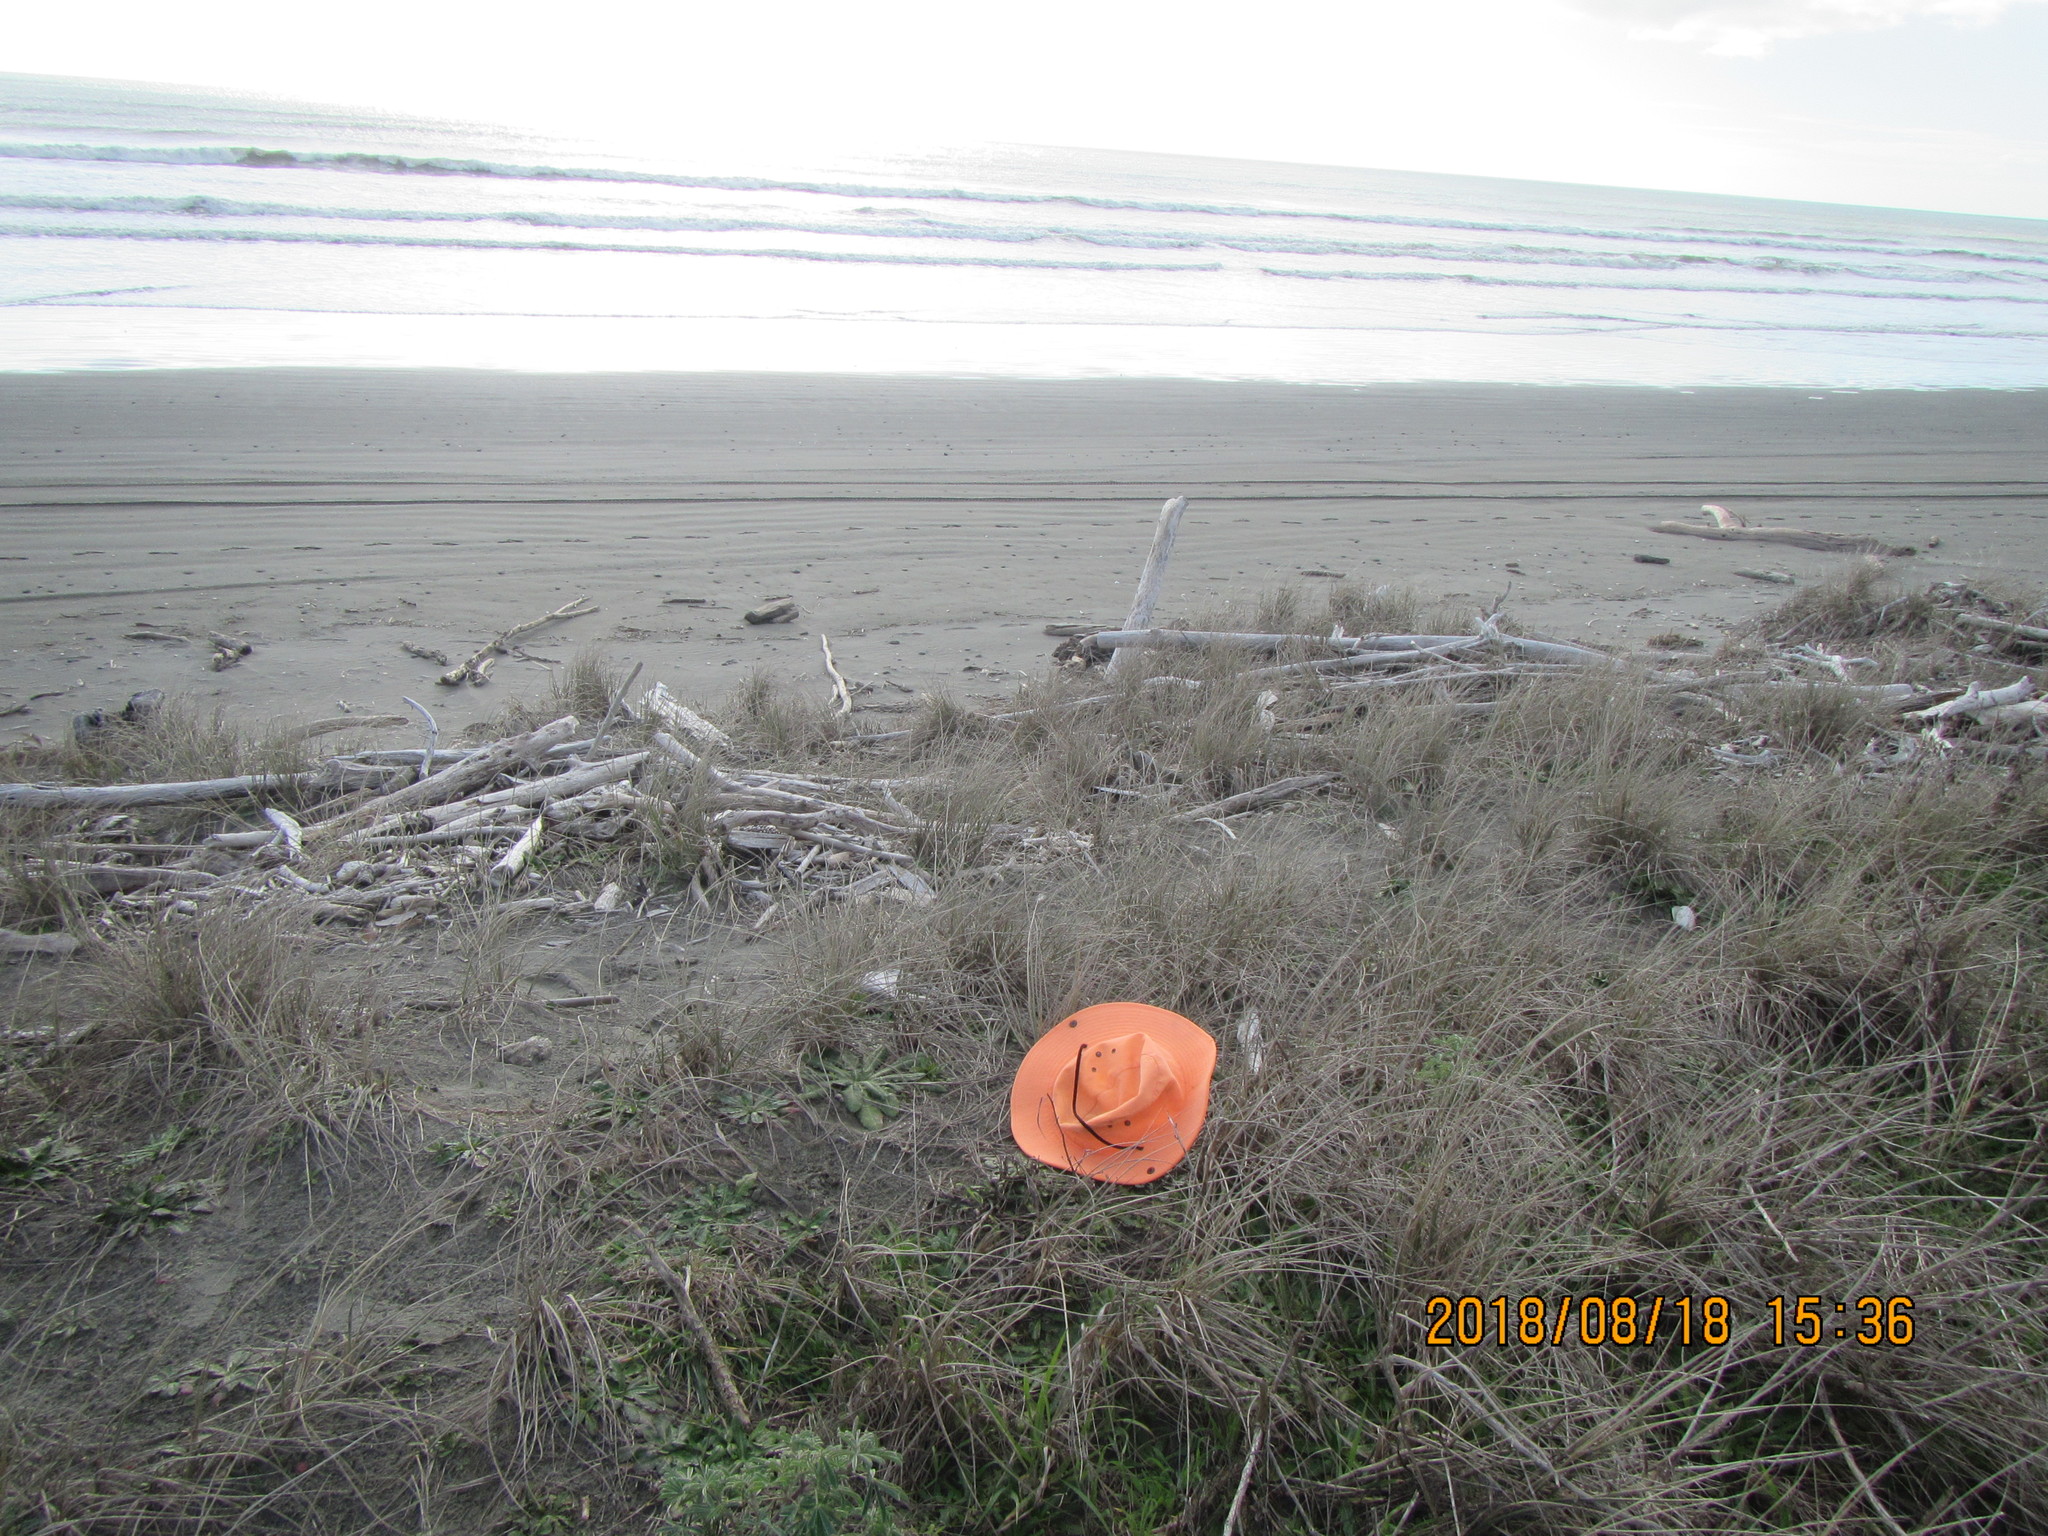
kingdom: Fungi
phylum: Basidiomycota
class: Agaricomycetes
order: Phallales
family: Phallaceae
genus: Ileodictyon
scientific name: Ileodictyon cibarium
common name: Basket fungus
